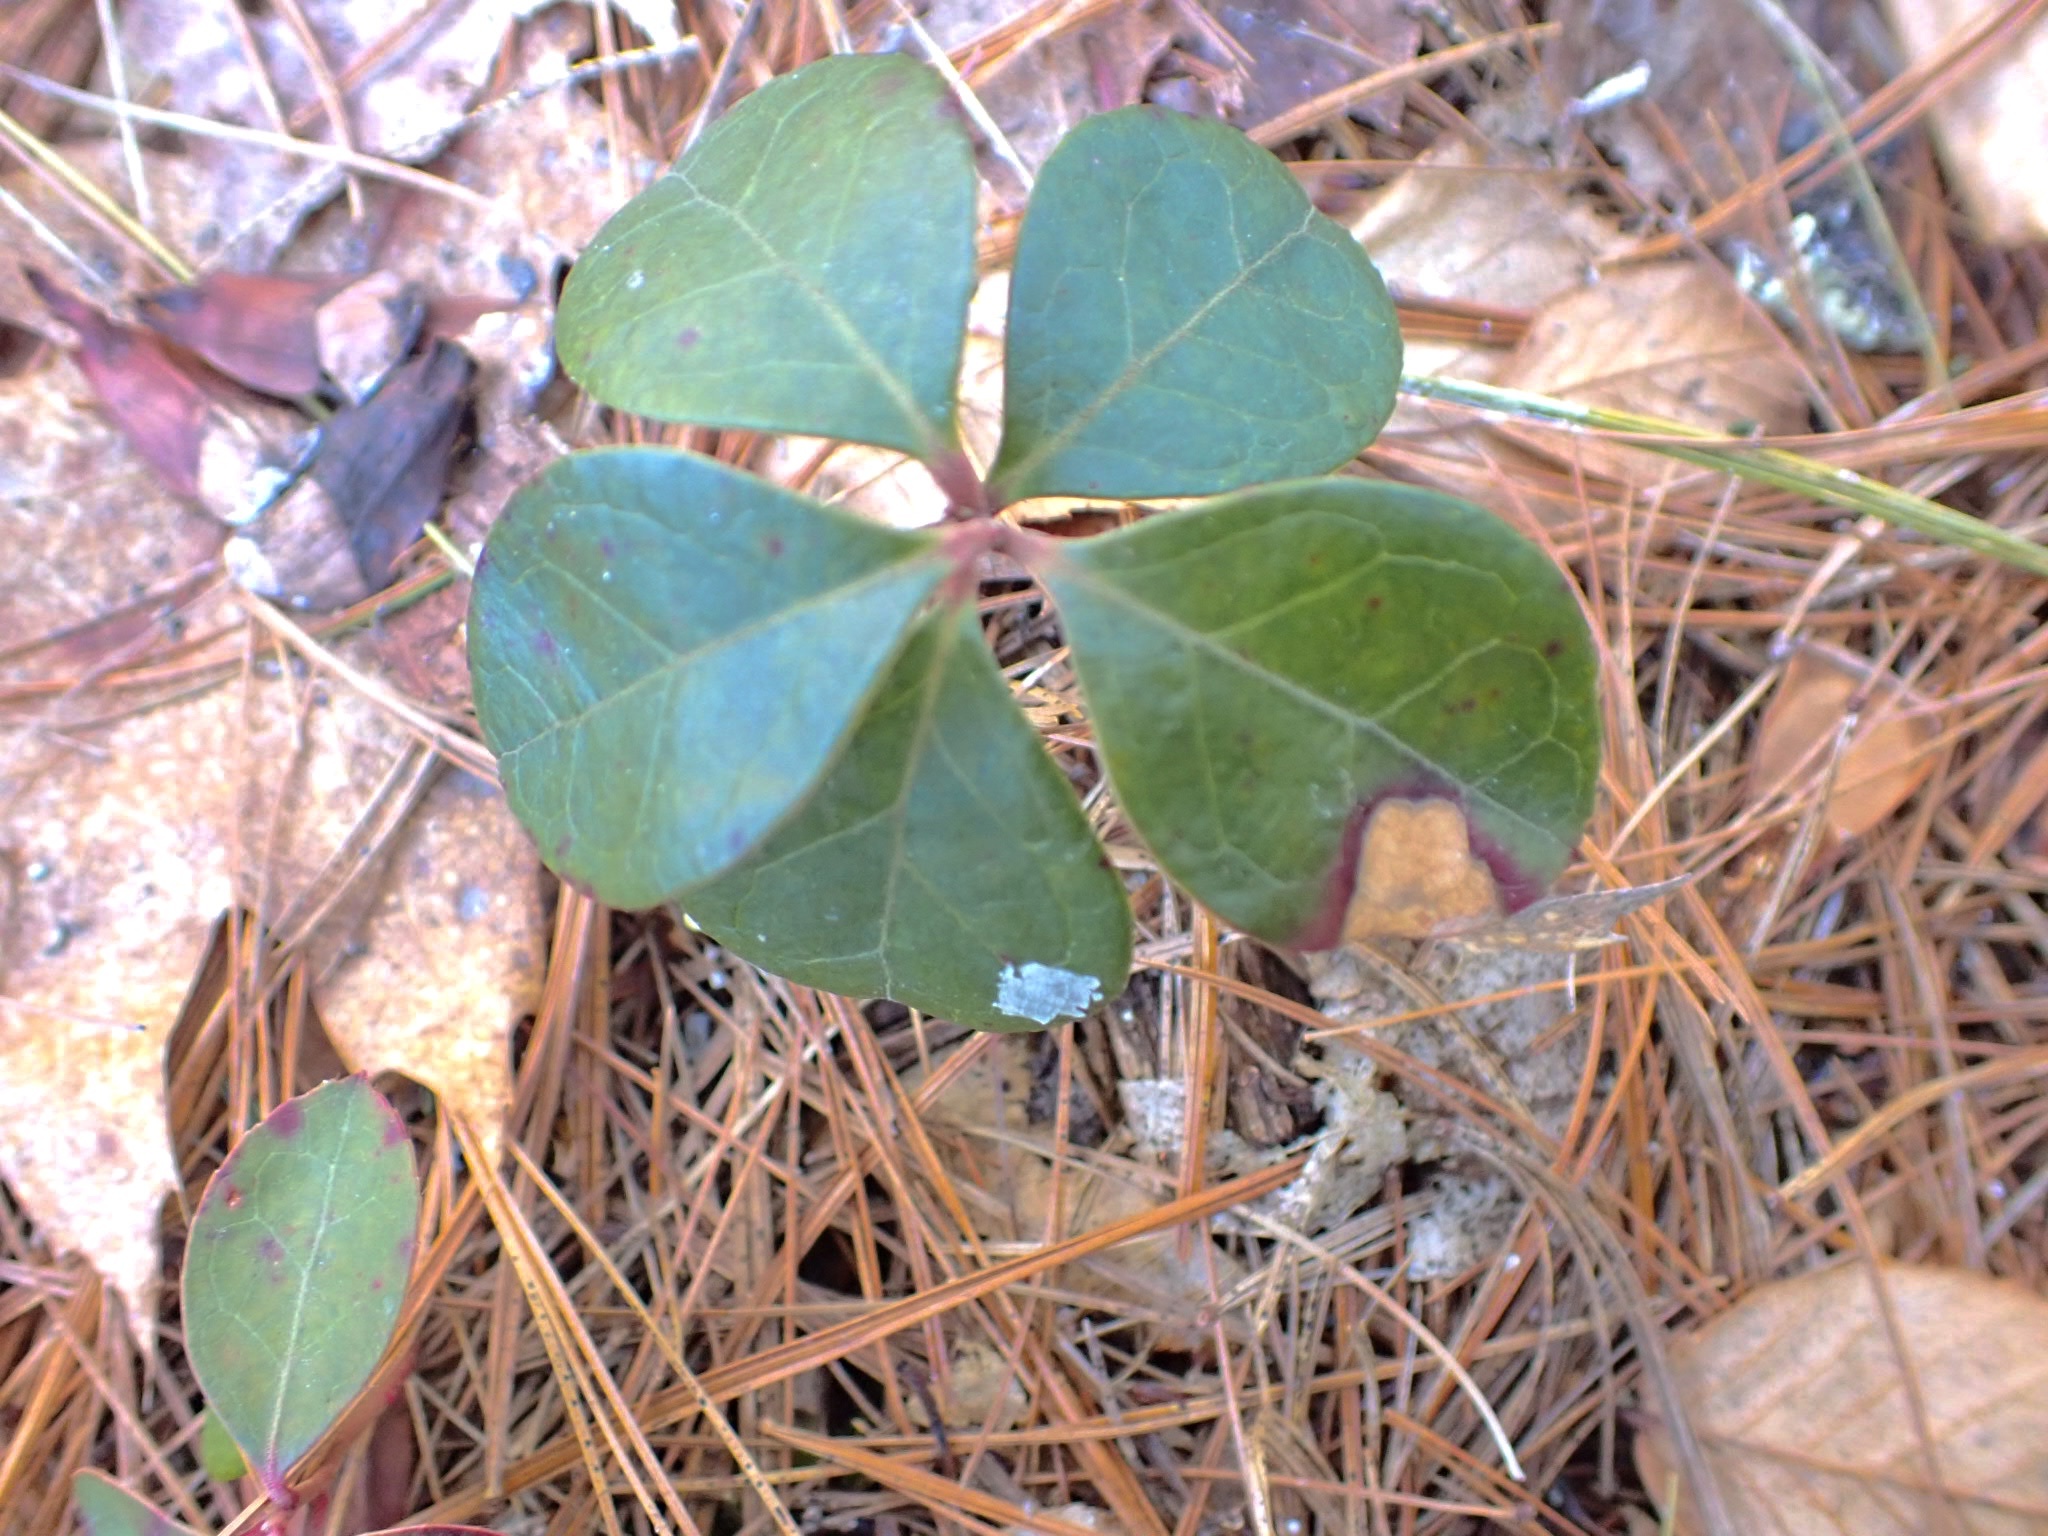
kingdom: Plantae
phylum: Tracheophyta
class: Magnoliopsida
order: Ericales
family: Ericaceae
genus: Gaultheria
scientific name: Gaultheria procumbens
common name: Checkerberry
